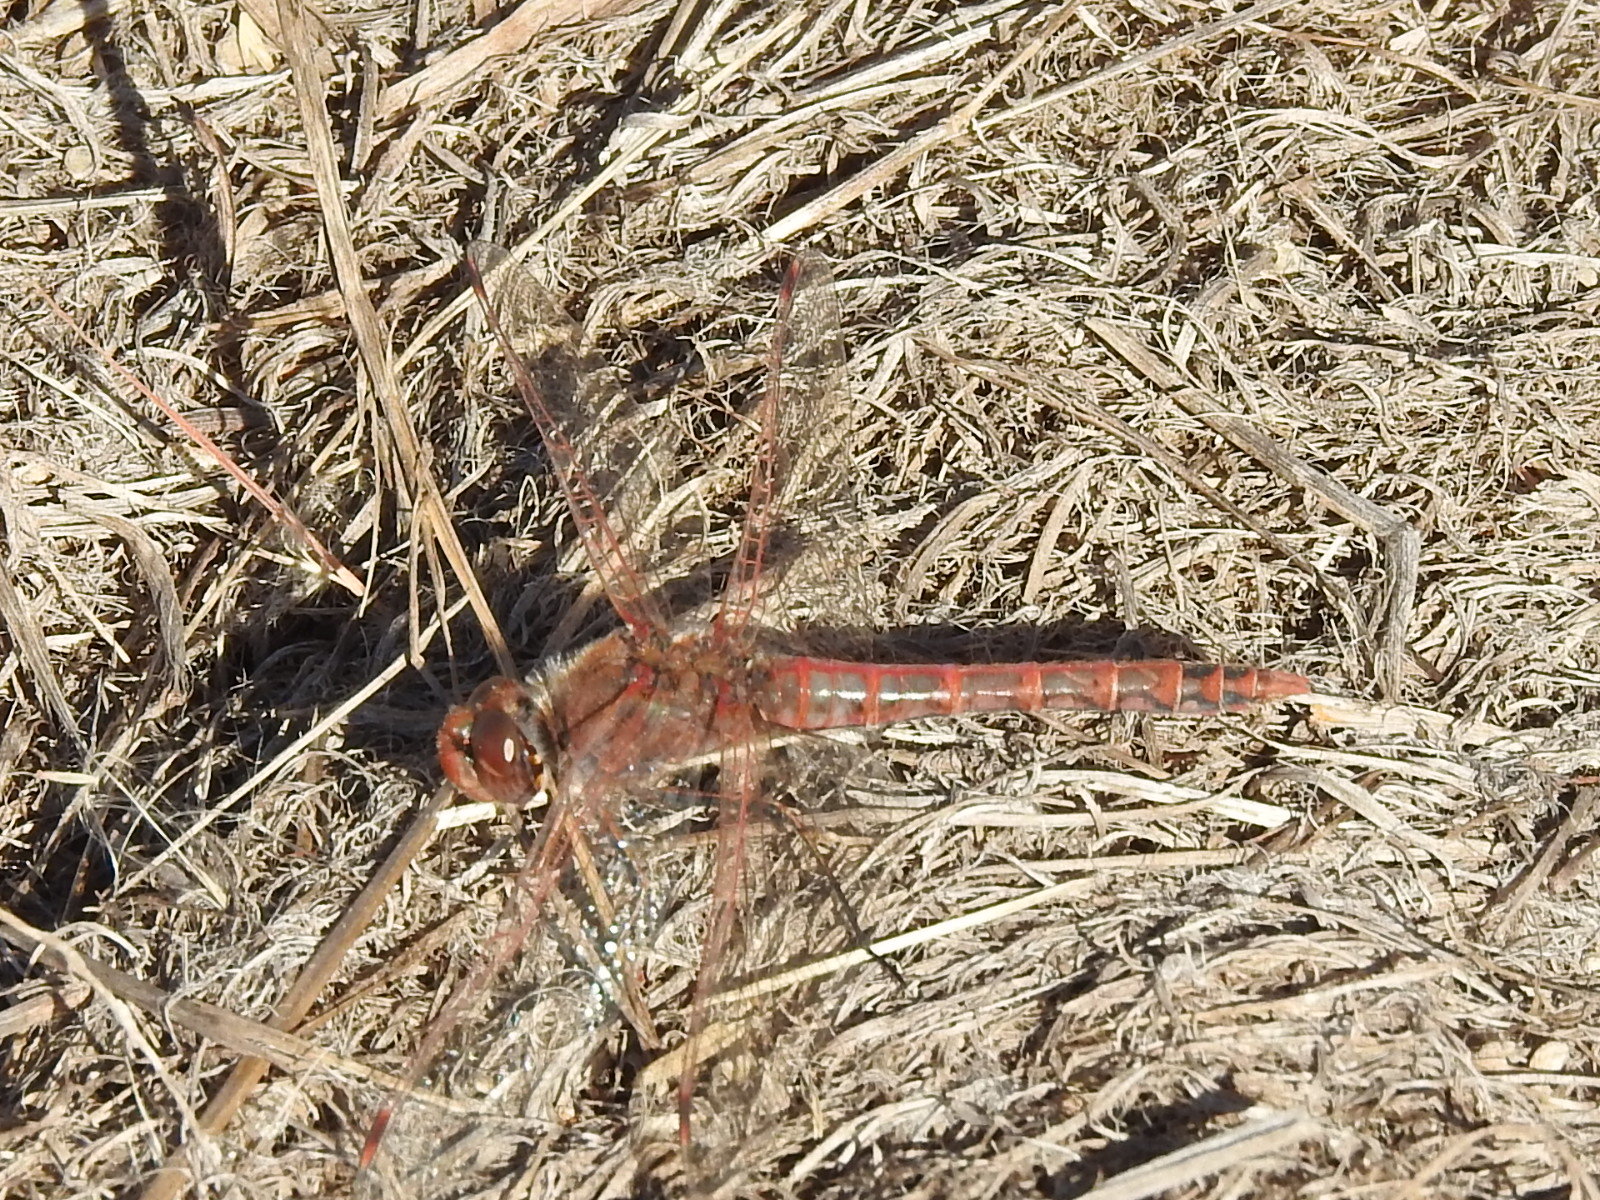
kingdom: Animalia
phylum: Arthropoda
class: Insecta
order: Odonata
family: Libellulidae
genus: Sympetrum
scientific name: Sympetrum corruptum
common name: Variegated meadowhawk
